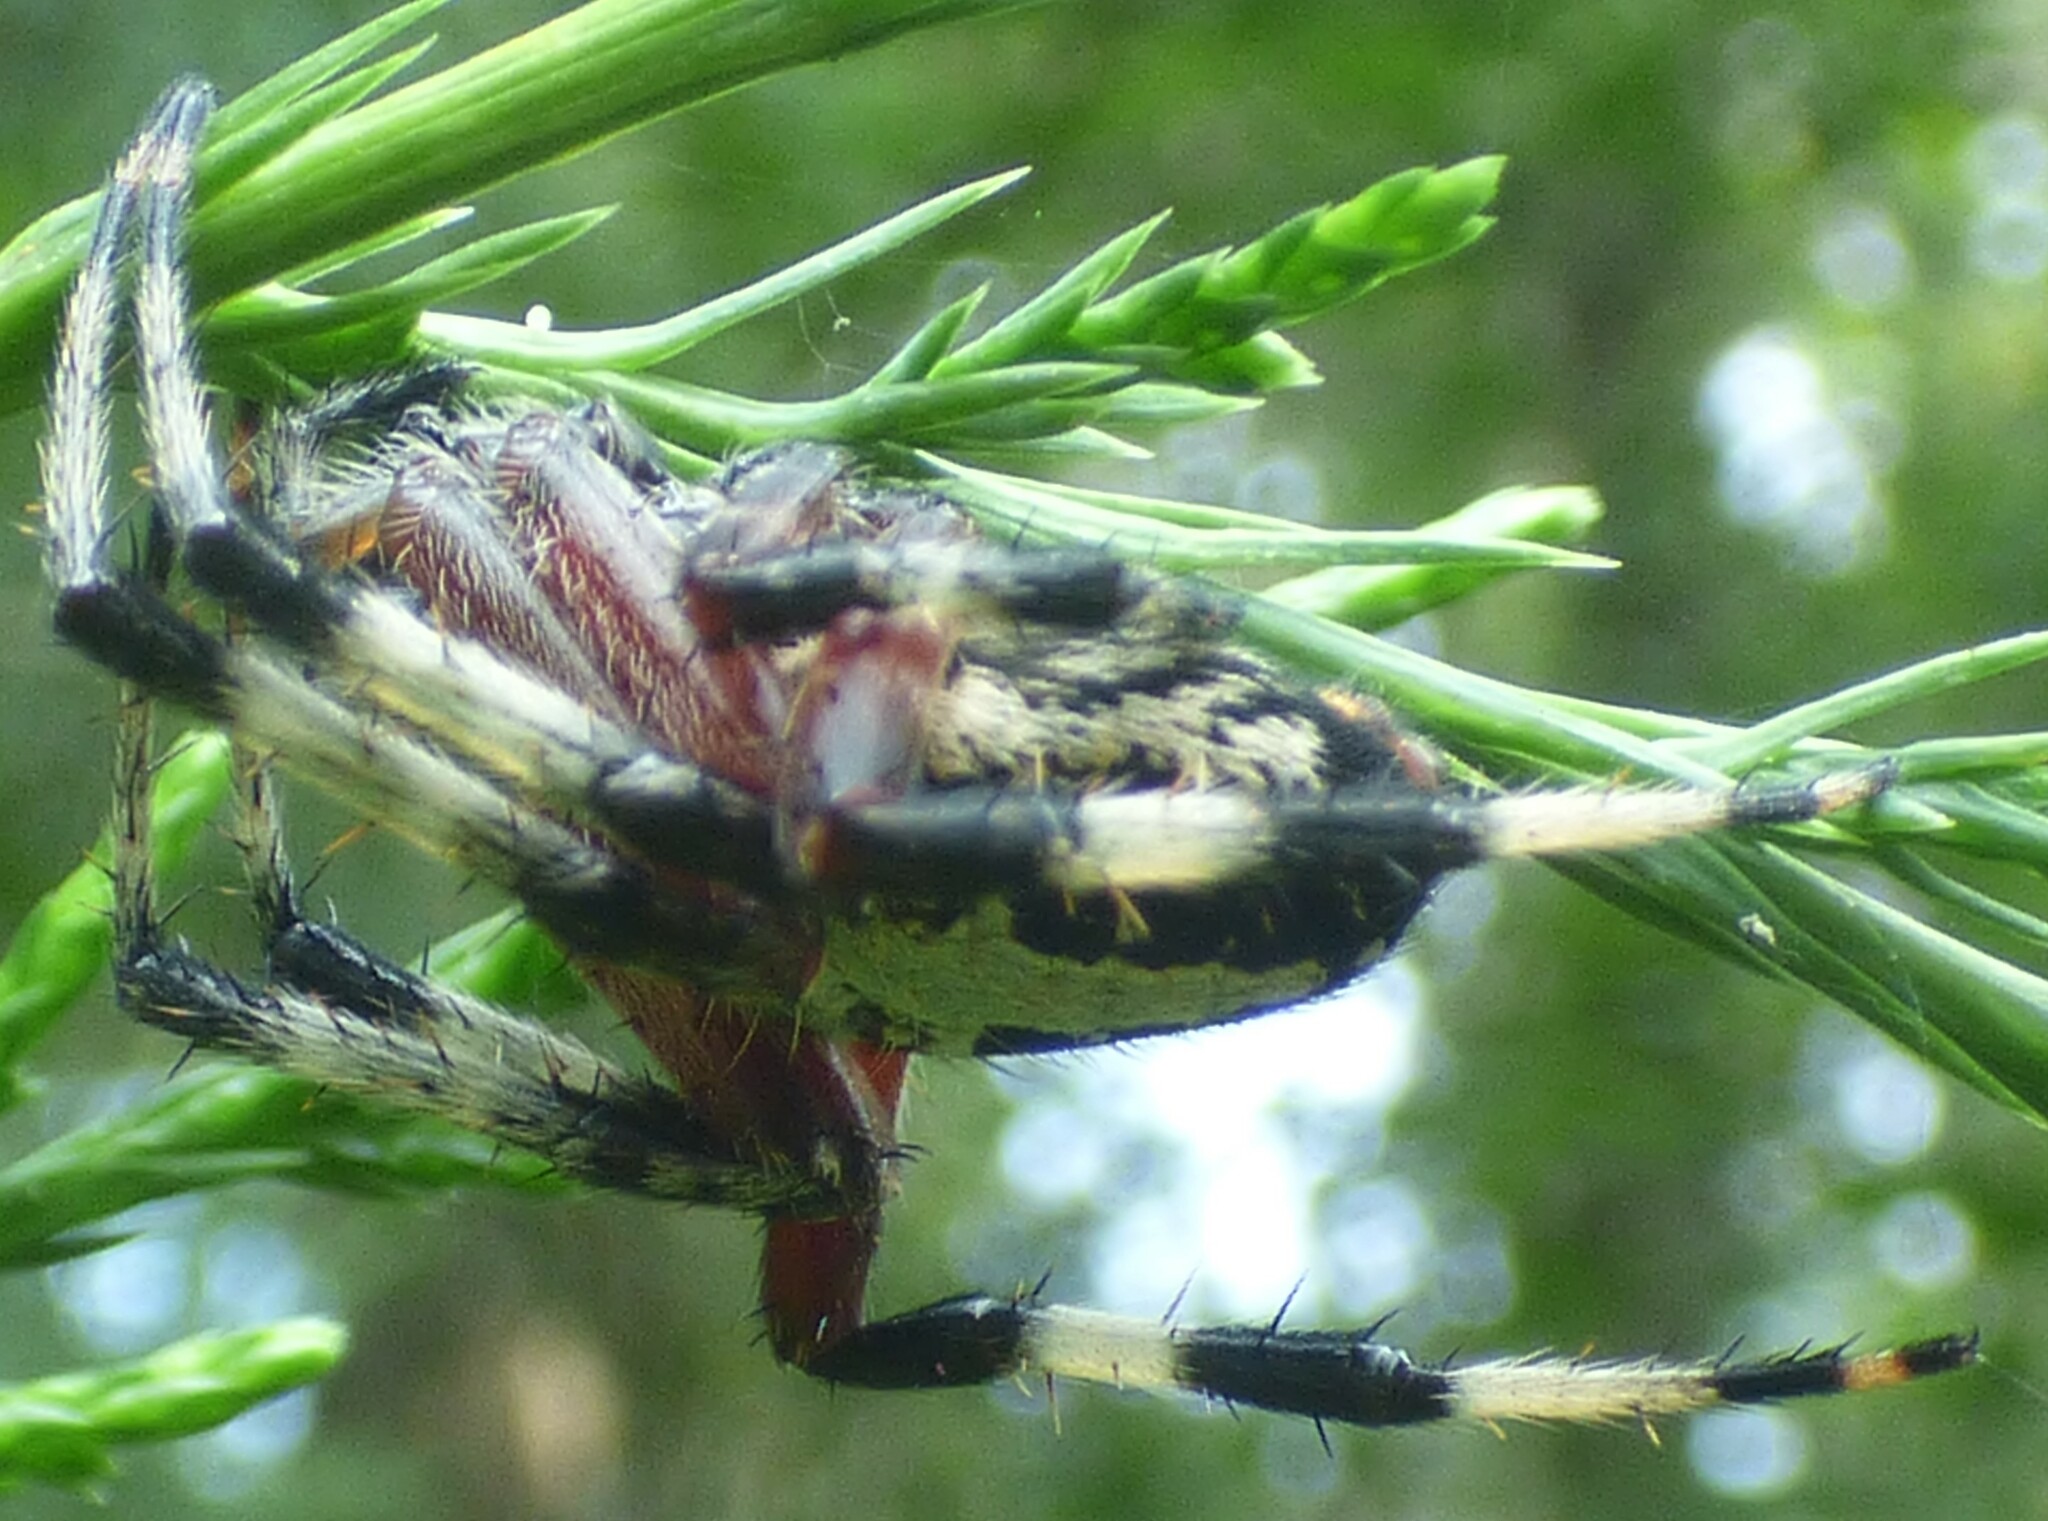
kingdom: Animalia
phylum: Arthropoda
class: Arachnida
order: Araneae
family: Araneidae
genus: Neoscona
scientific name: Neoscona domiciliorum
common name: Red-femured spotted orbweaver
